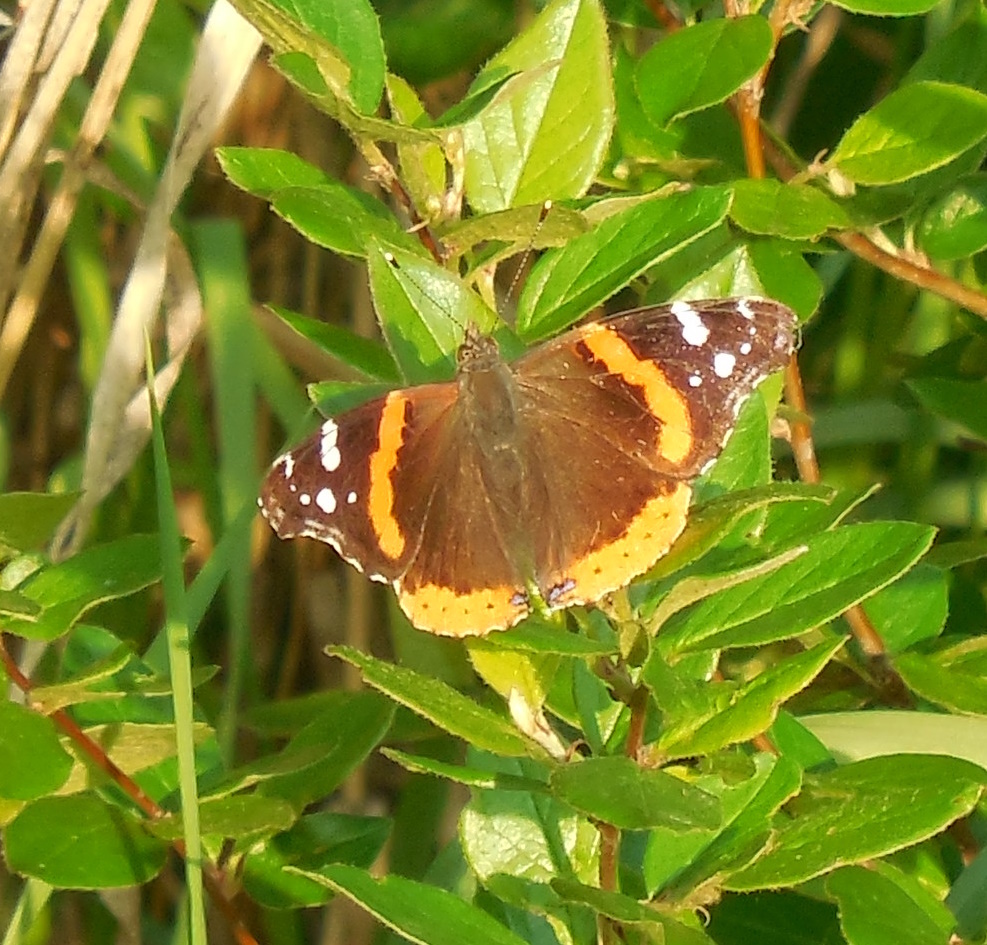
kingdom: Animalia
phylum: Arthropoda
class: Insecta
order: Lepidoptera
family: Nymphalidae
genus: Vanessa
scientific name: Vanessa atalanta
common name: Red admiral
